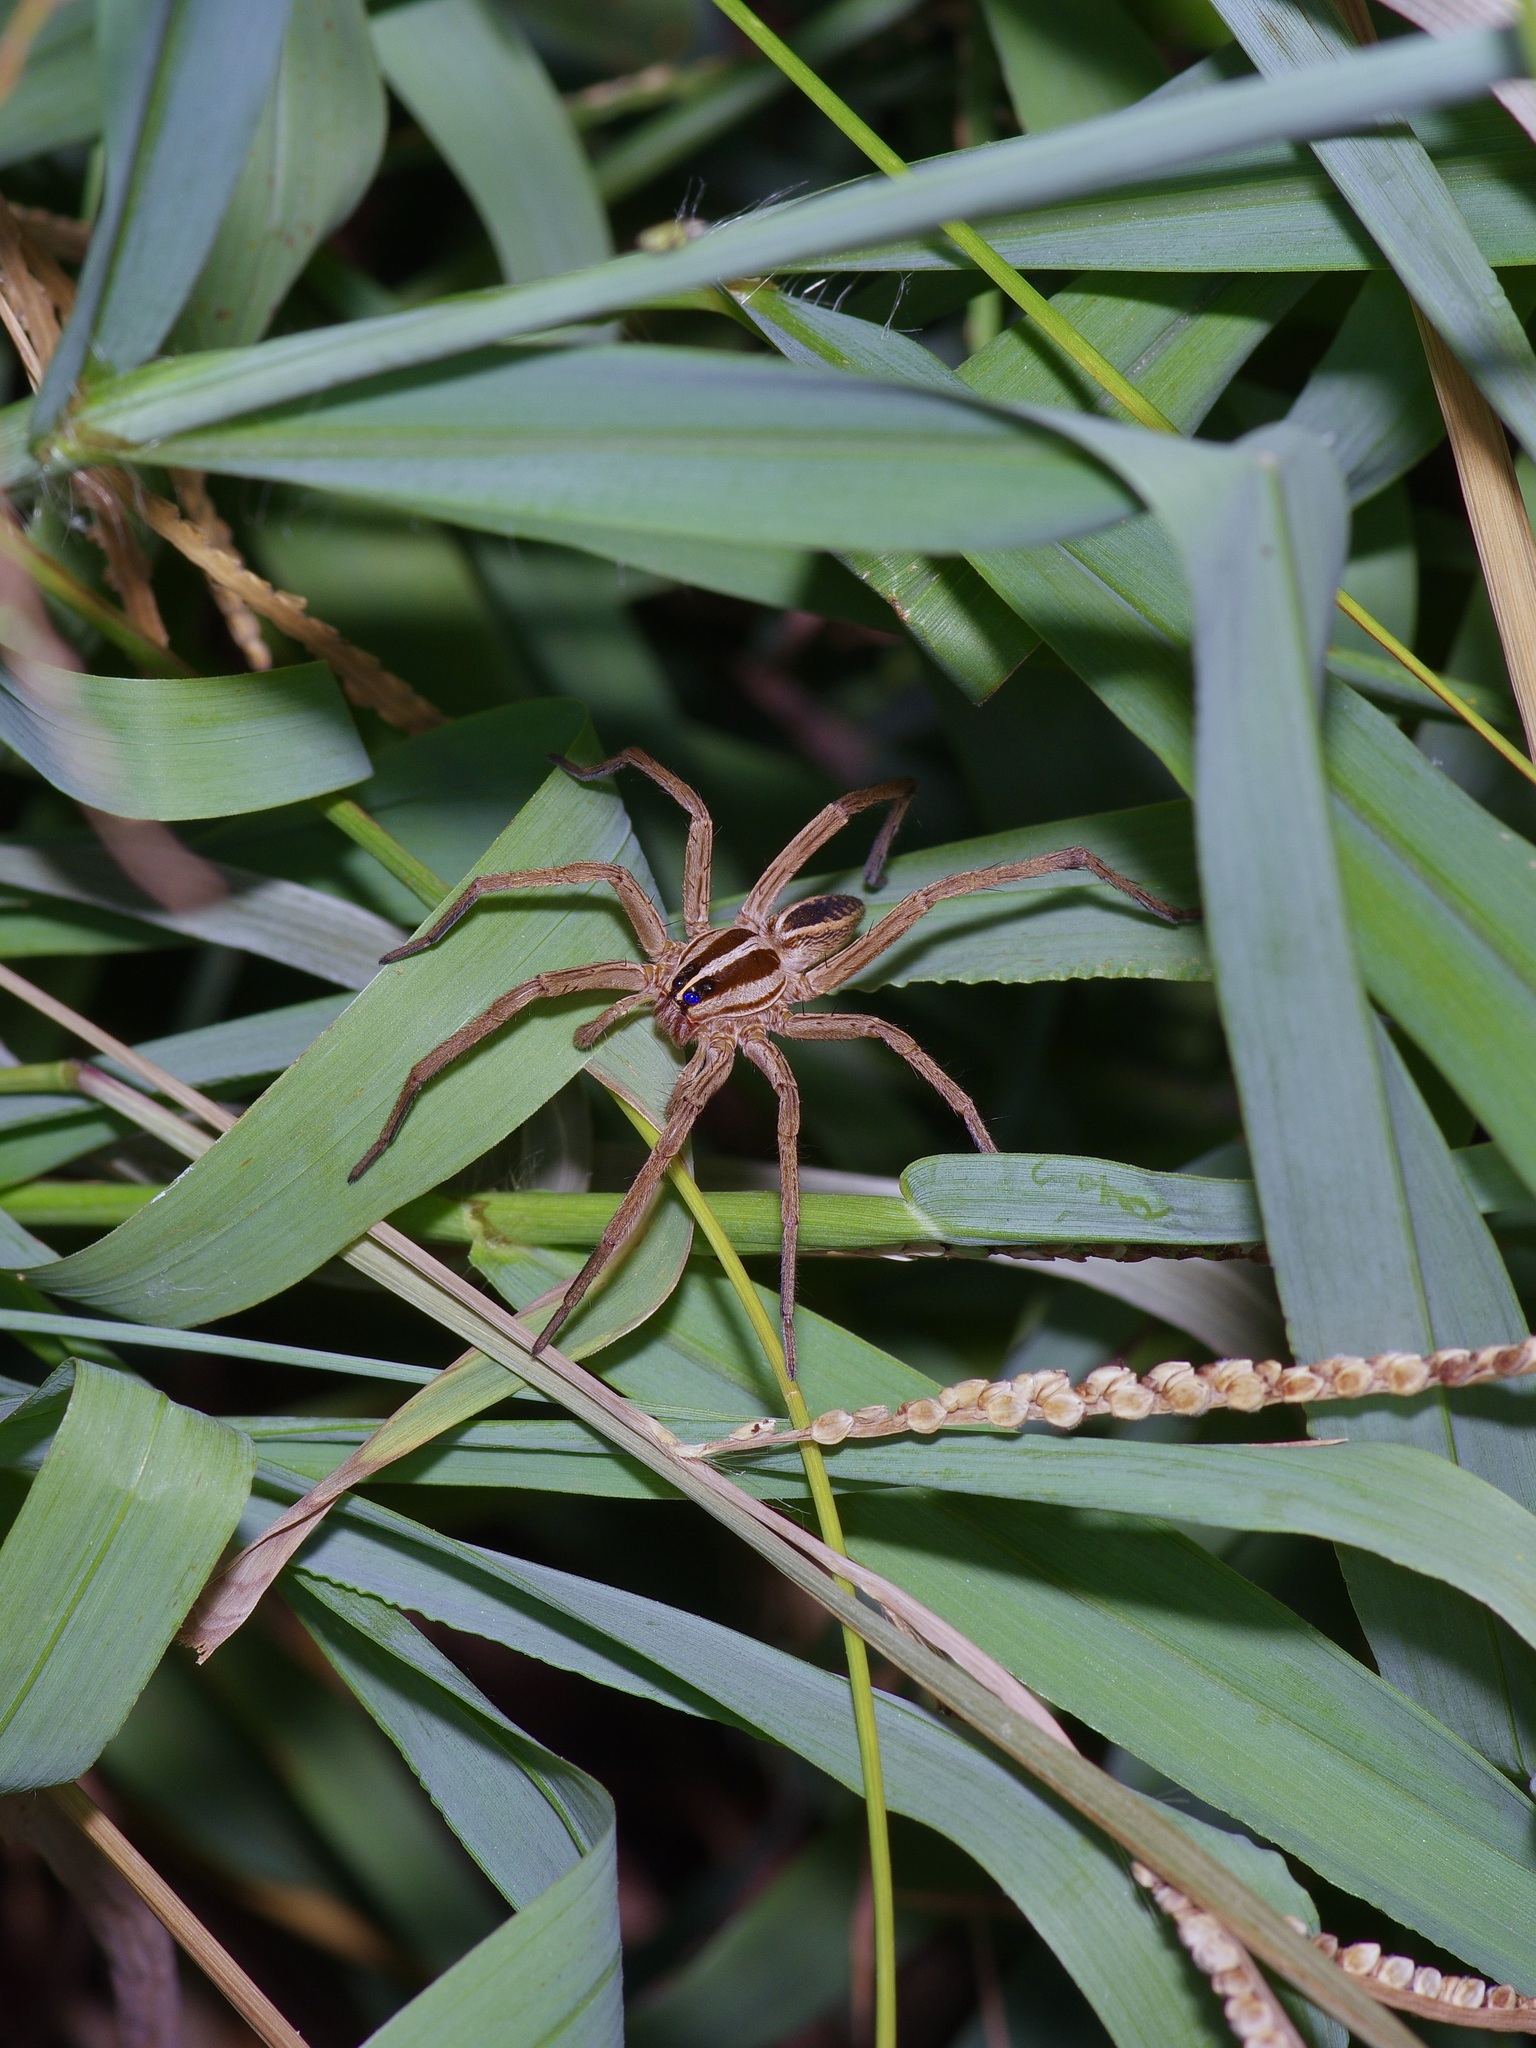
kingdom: Animalia
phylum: Arthropoda
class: Arachnida
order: Araneae
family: Lycosidae
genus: Rabidosa
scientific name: Rabidosa rabida
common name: Rabid wolf spider
